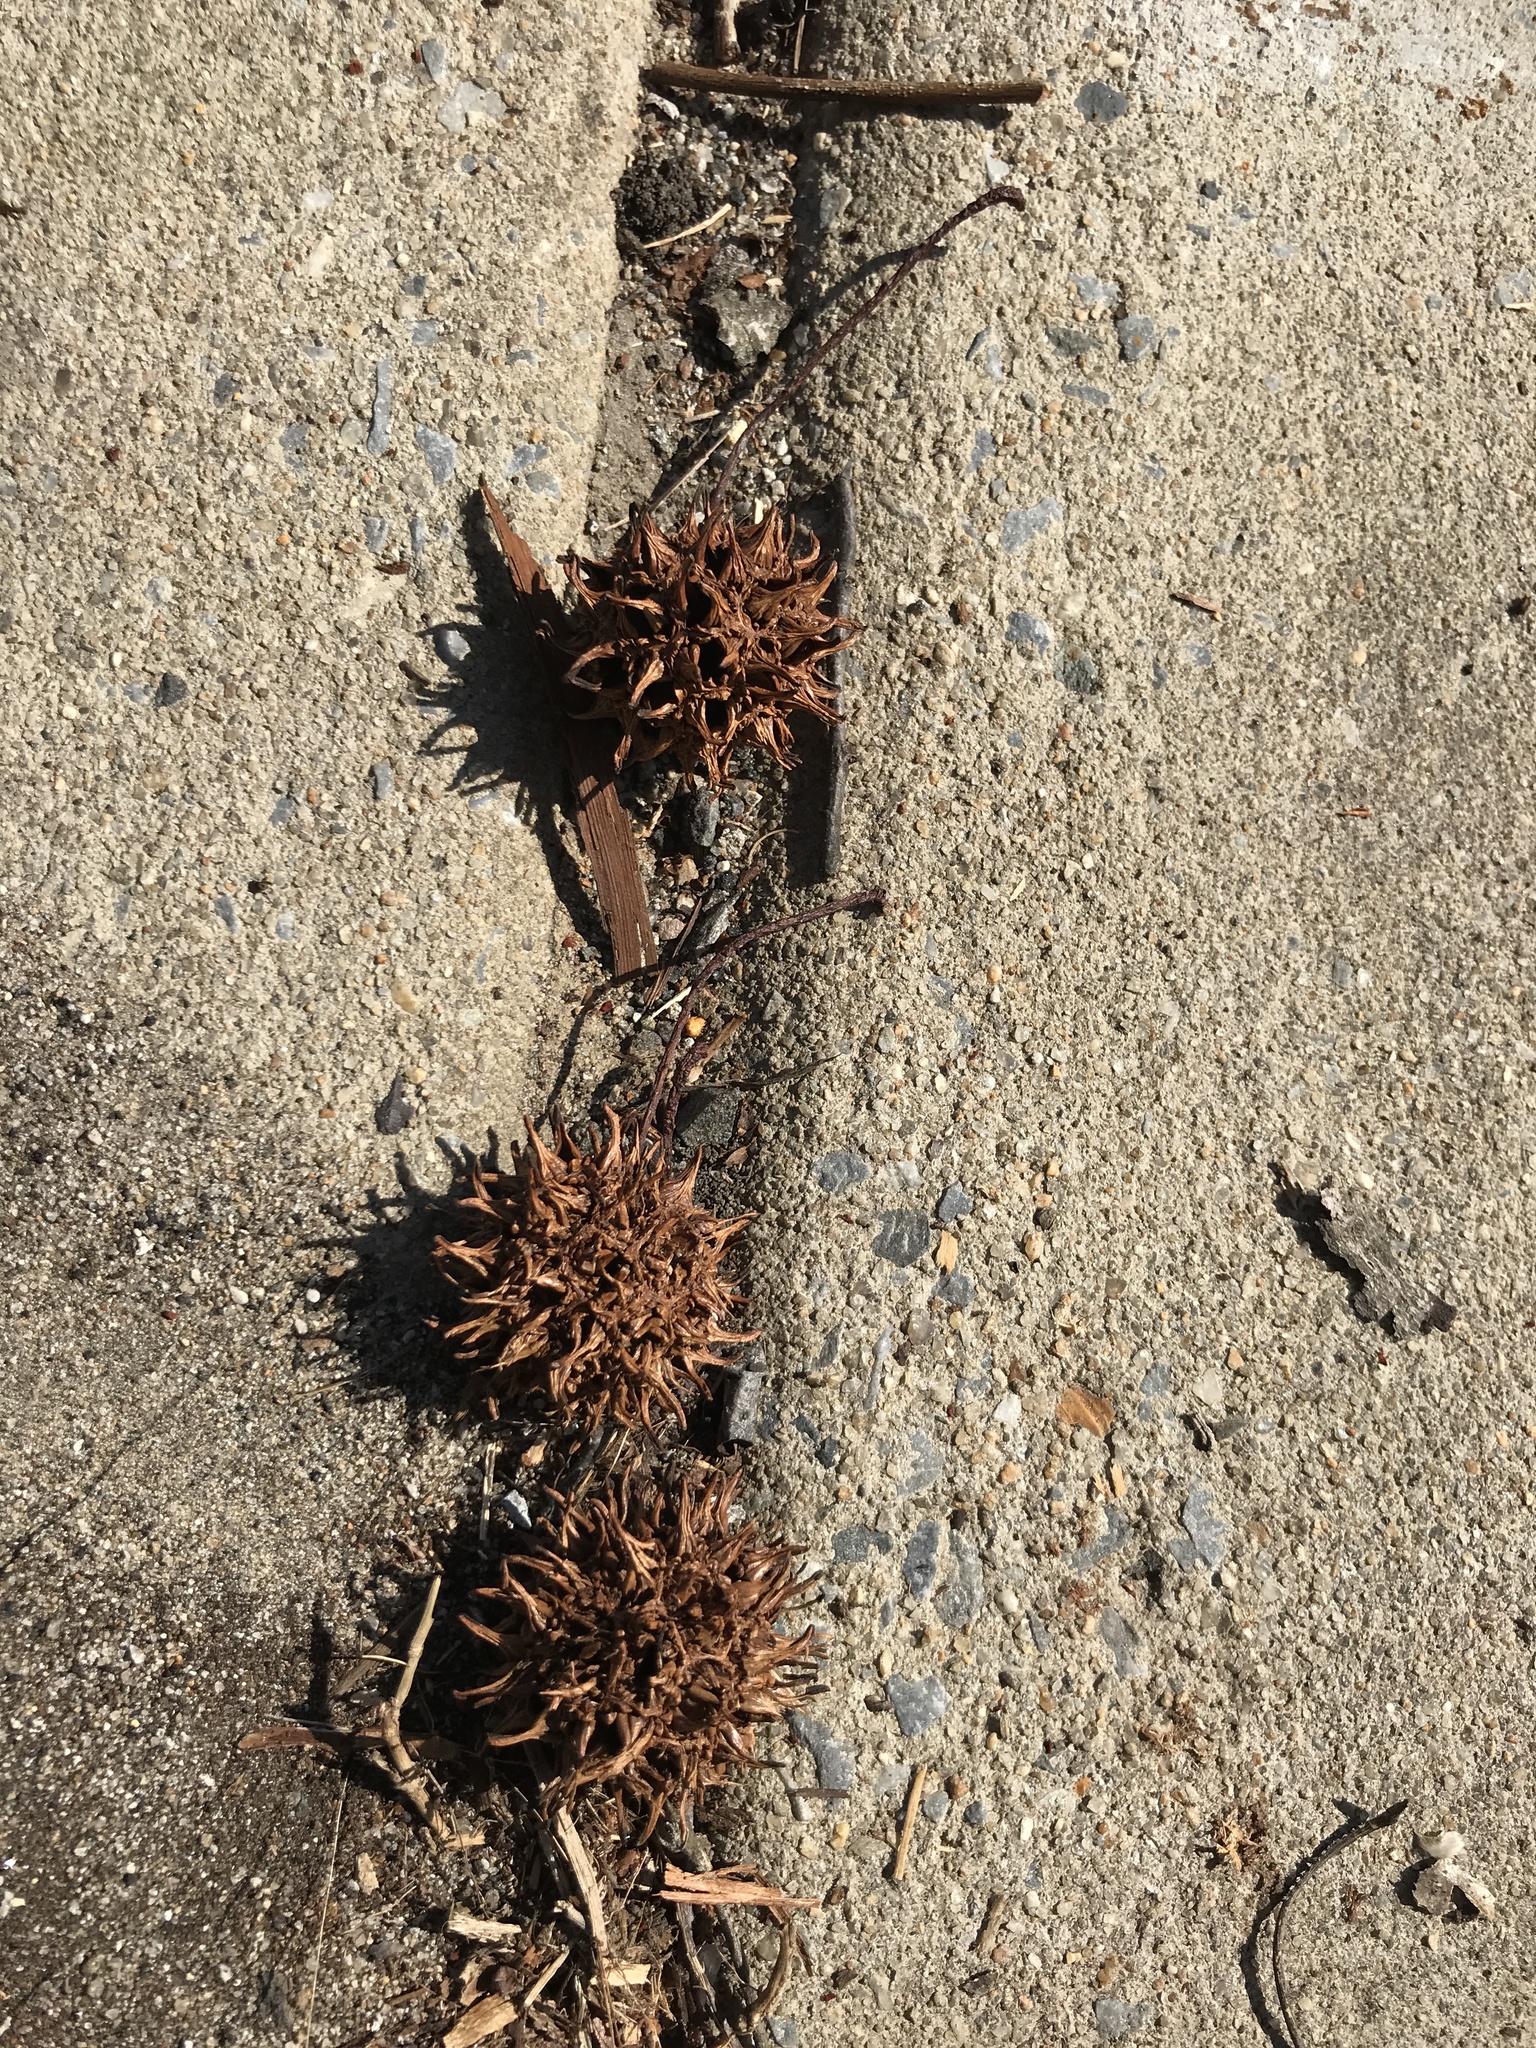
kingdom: Plantae
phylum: Tracheophyta
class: Magnoliopsida
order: Saxifragales
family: Altingiaceae
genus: Liquidambar
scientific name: Liquidambar styraciflua
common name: Sweet gum
